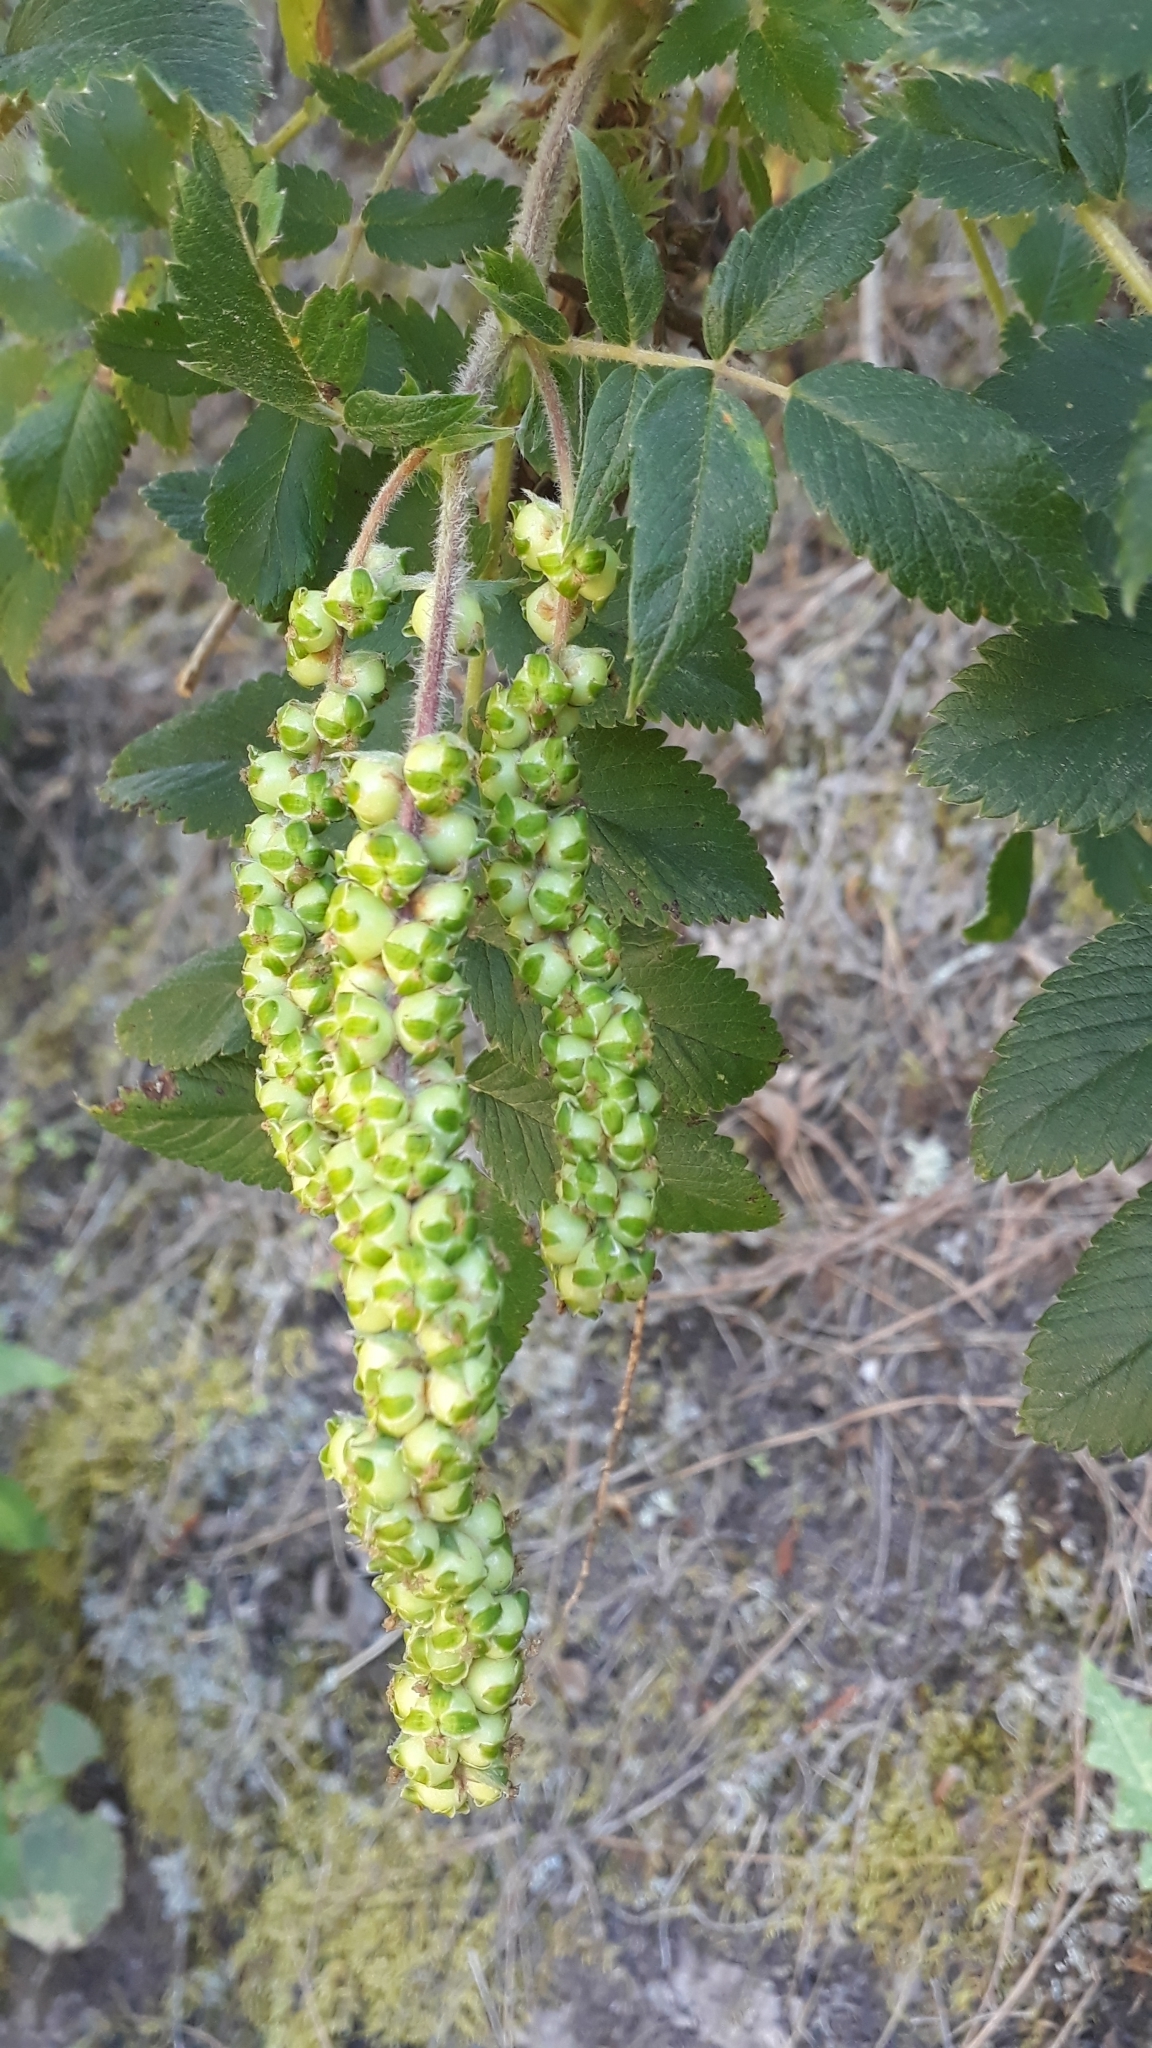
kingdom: Plantae
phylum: Tracheophyta
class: Magnoliopsida
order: Rosales
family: Rosaceae
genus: Bencomia
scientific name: Bencomia caudata
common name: Bencomia
